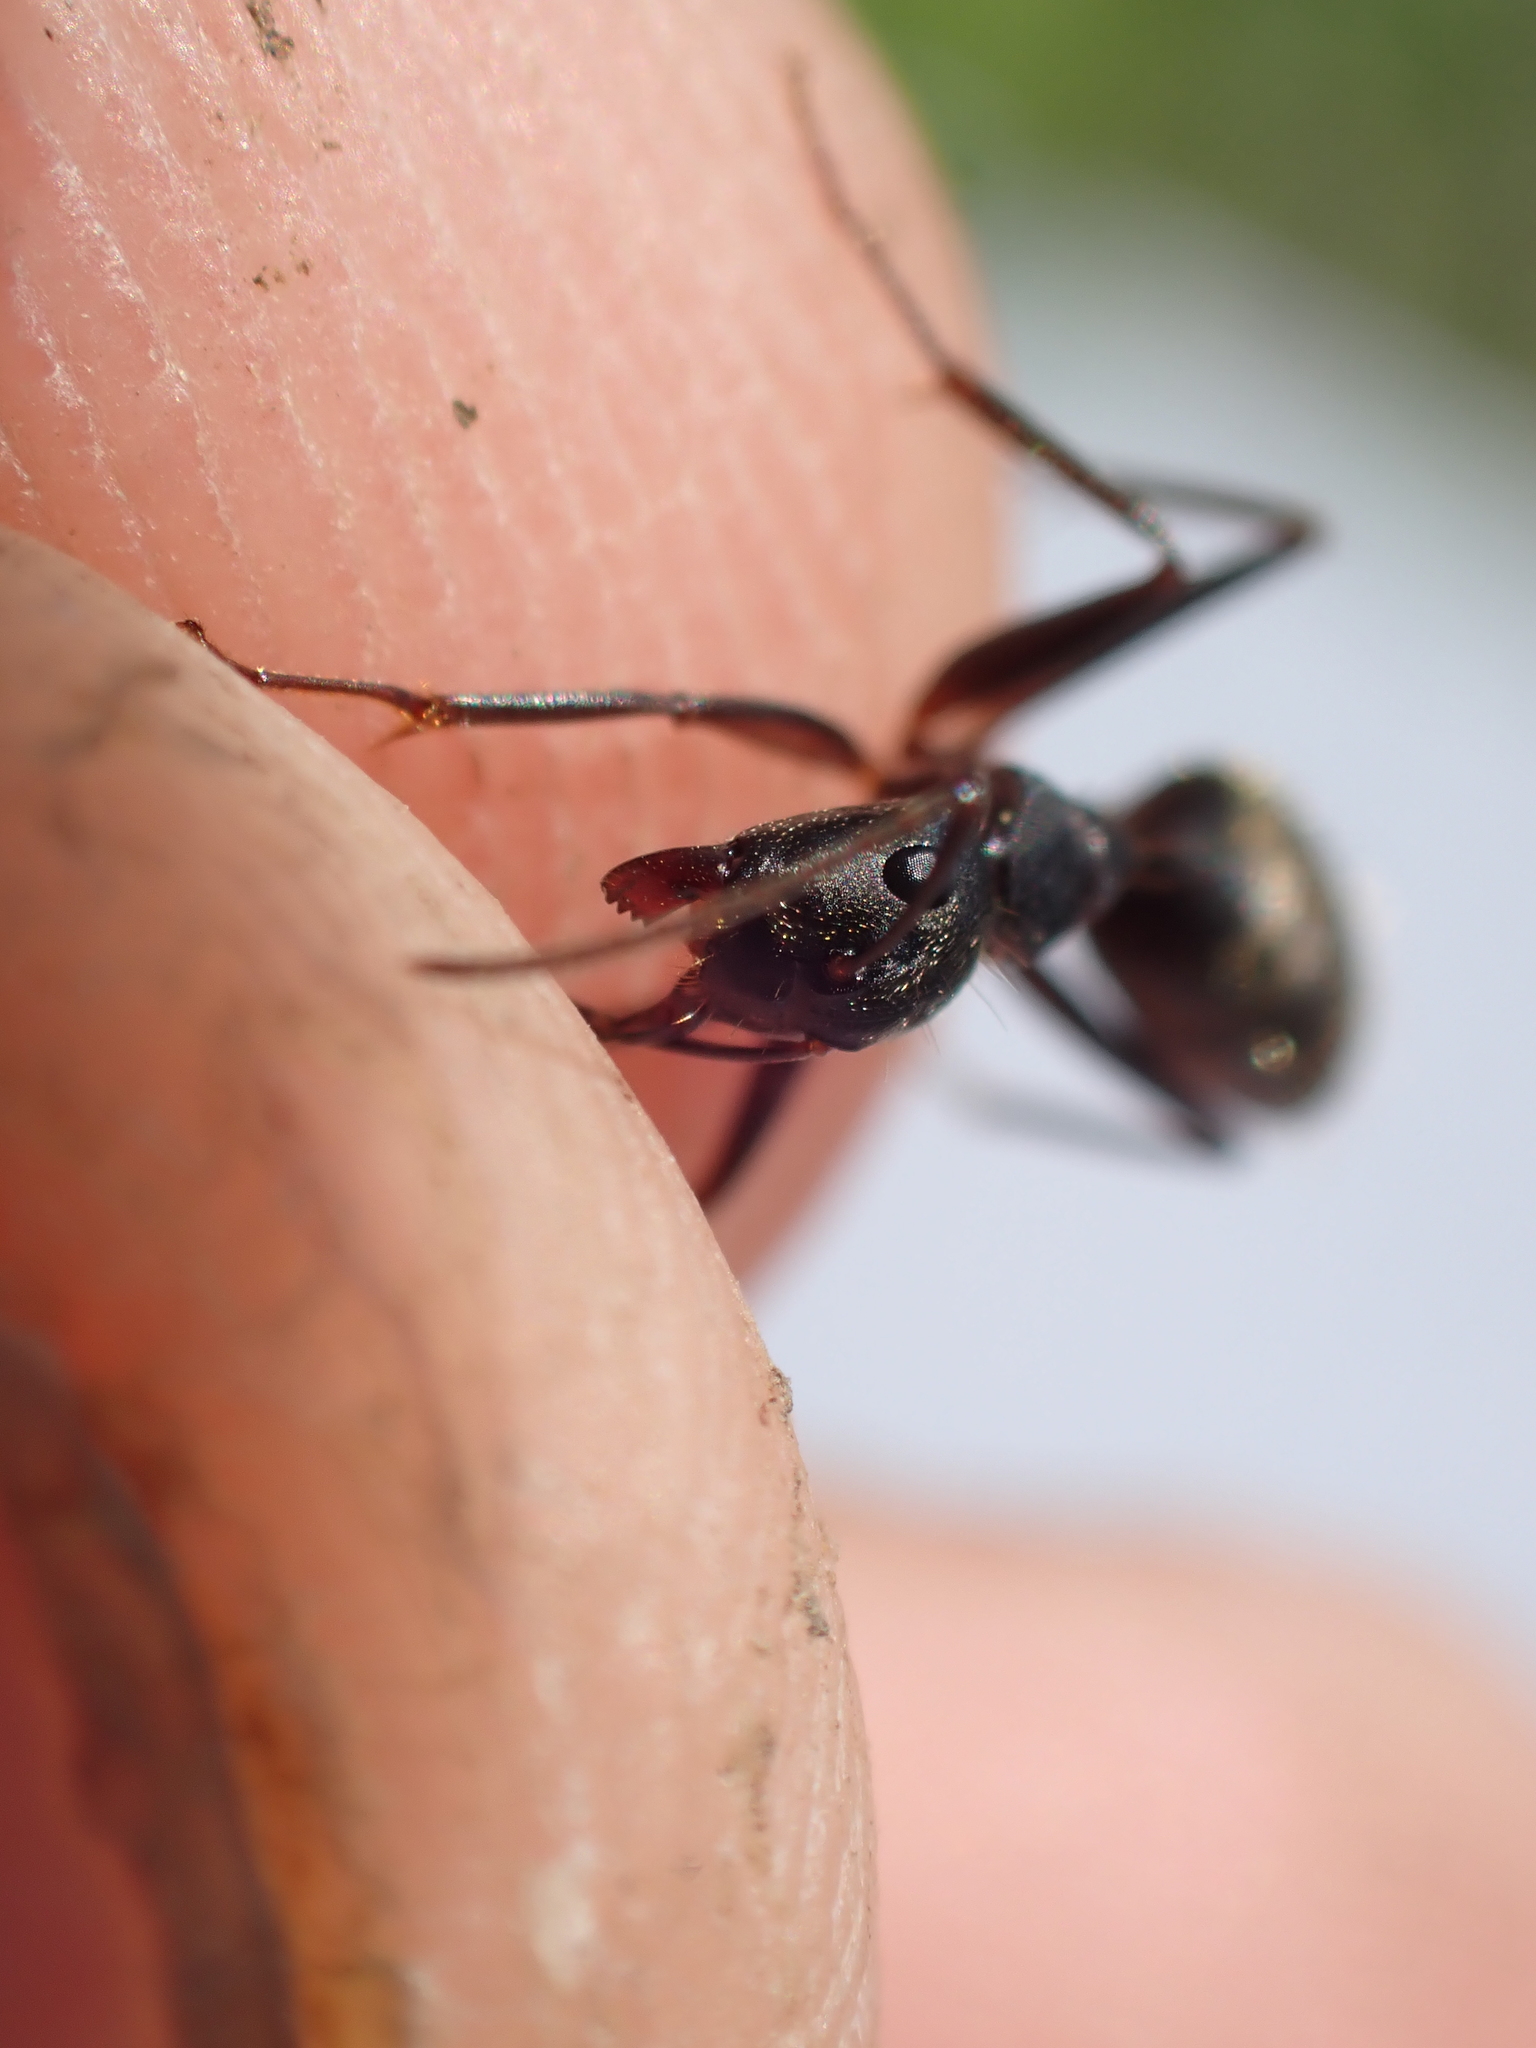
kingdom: Animalia
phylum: Arthropoda
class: Insecta
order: Hymenoptera
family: Formicidae
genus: Camponotus
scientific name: Camponotus chromaiodes
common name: Red carpenter ant
